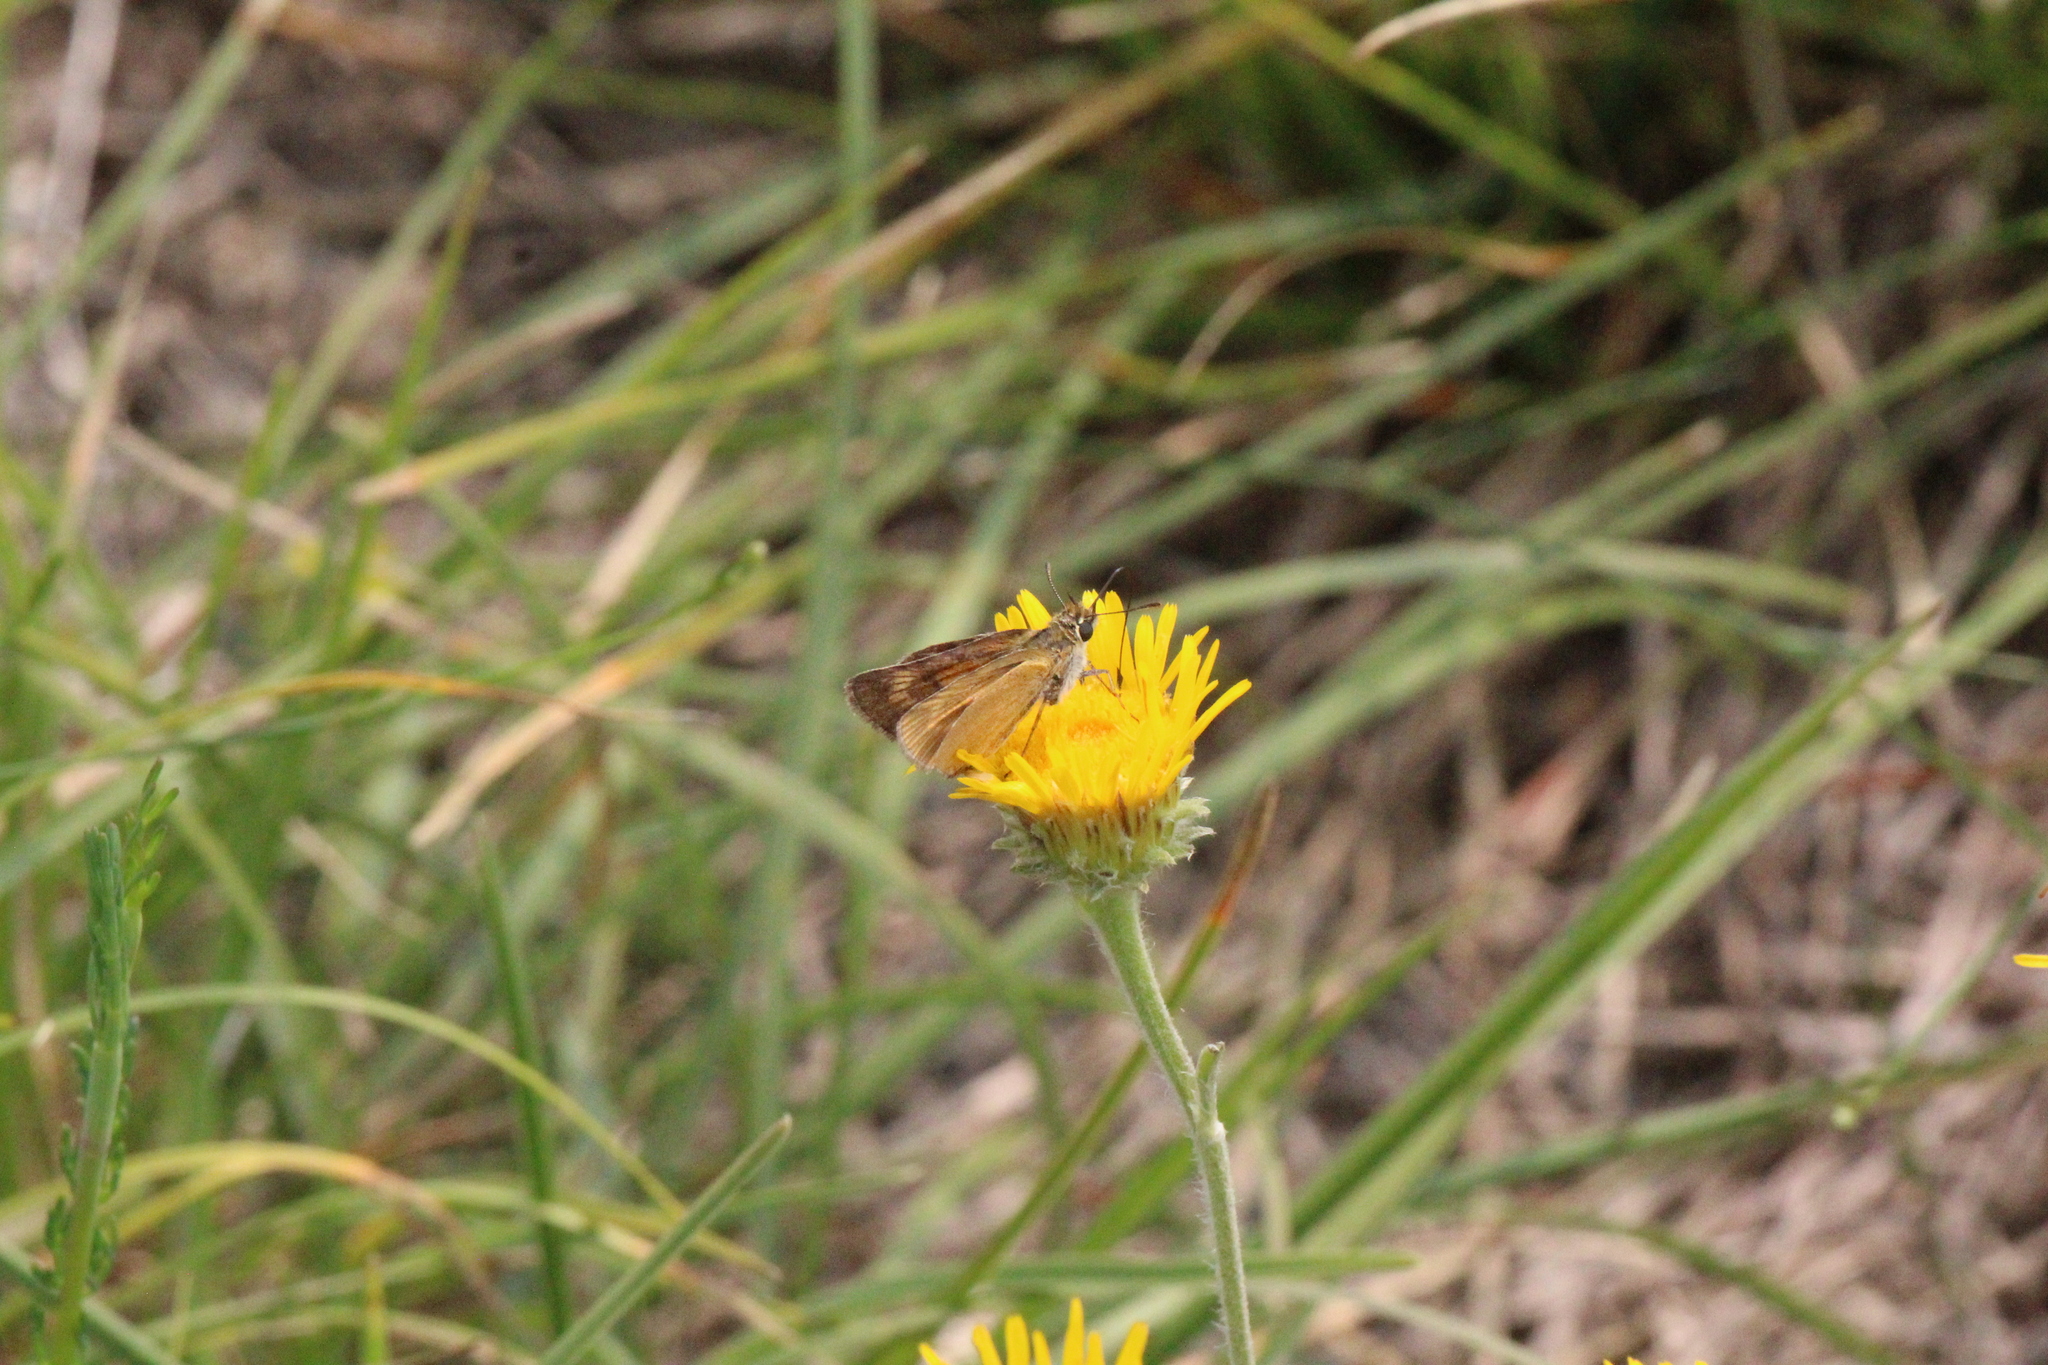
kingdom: Animalia
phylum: Arthropoda
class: Insecta
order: Lepidoptera
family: Hesperiidae
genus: Thymelicus
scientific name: Thymelicus acteon
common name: Lulworth skipper
